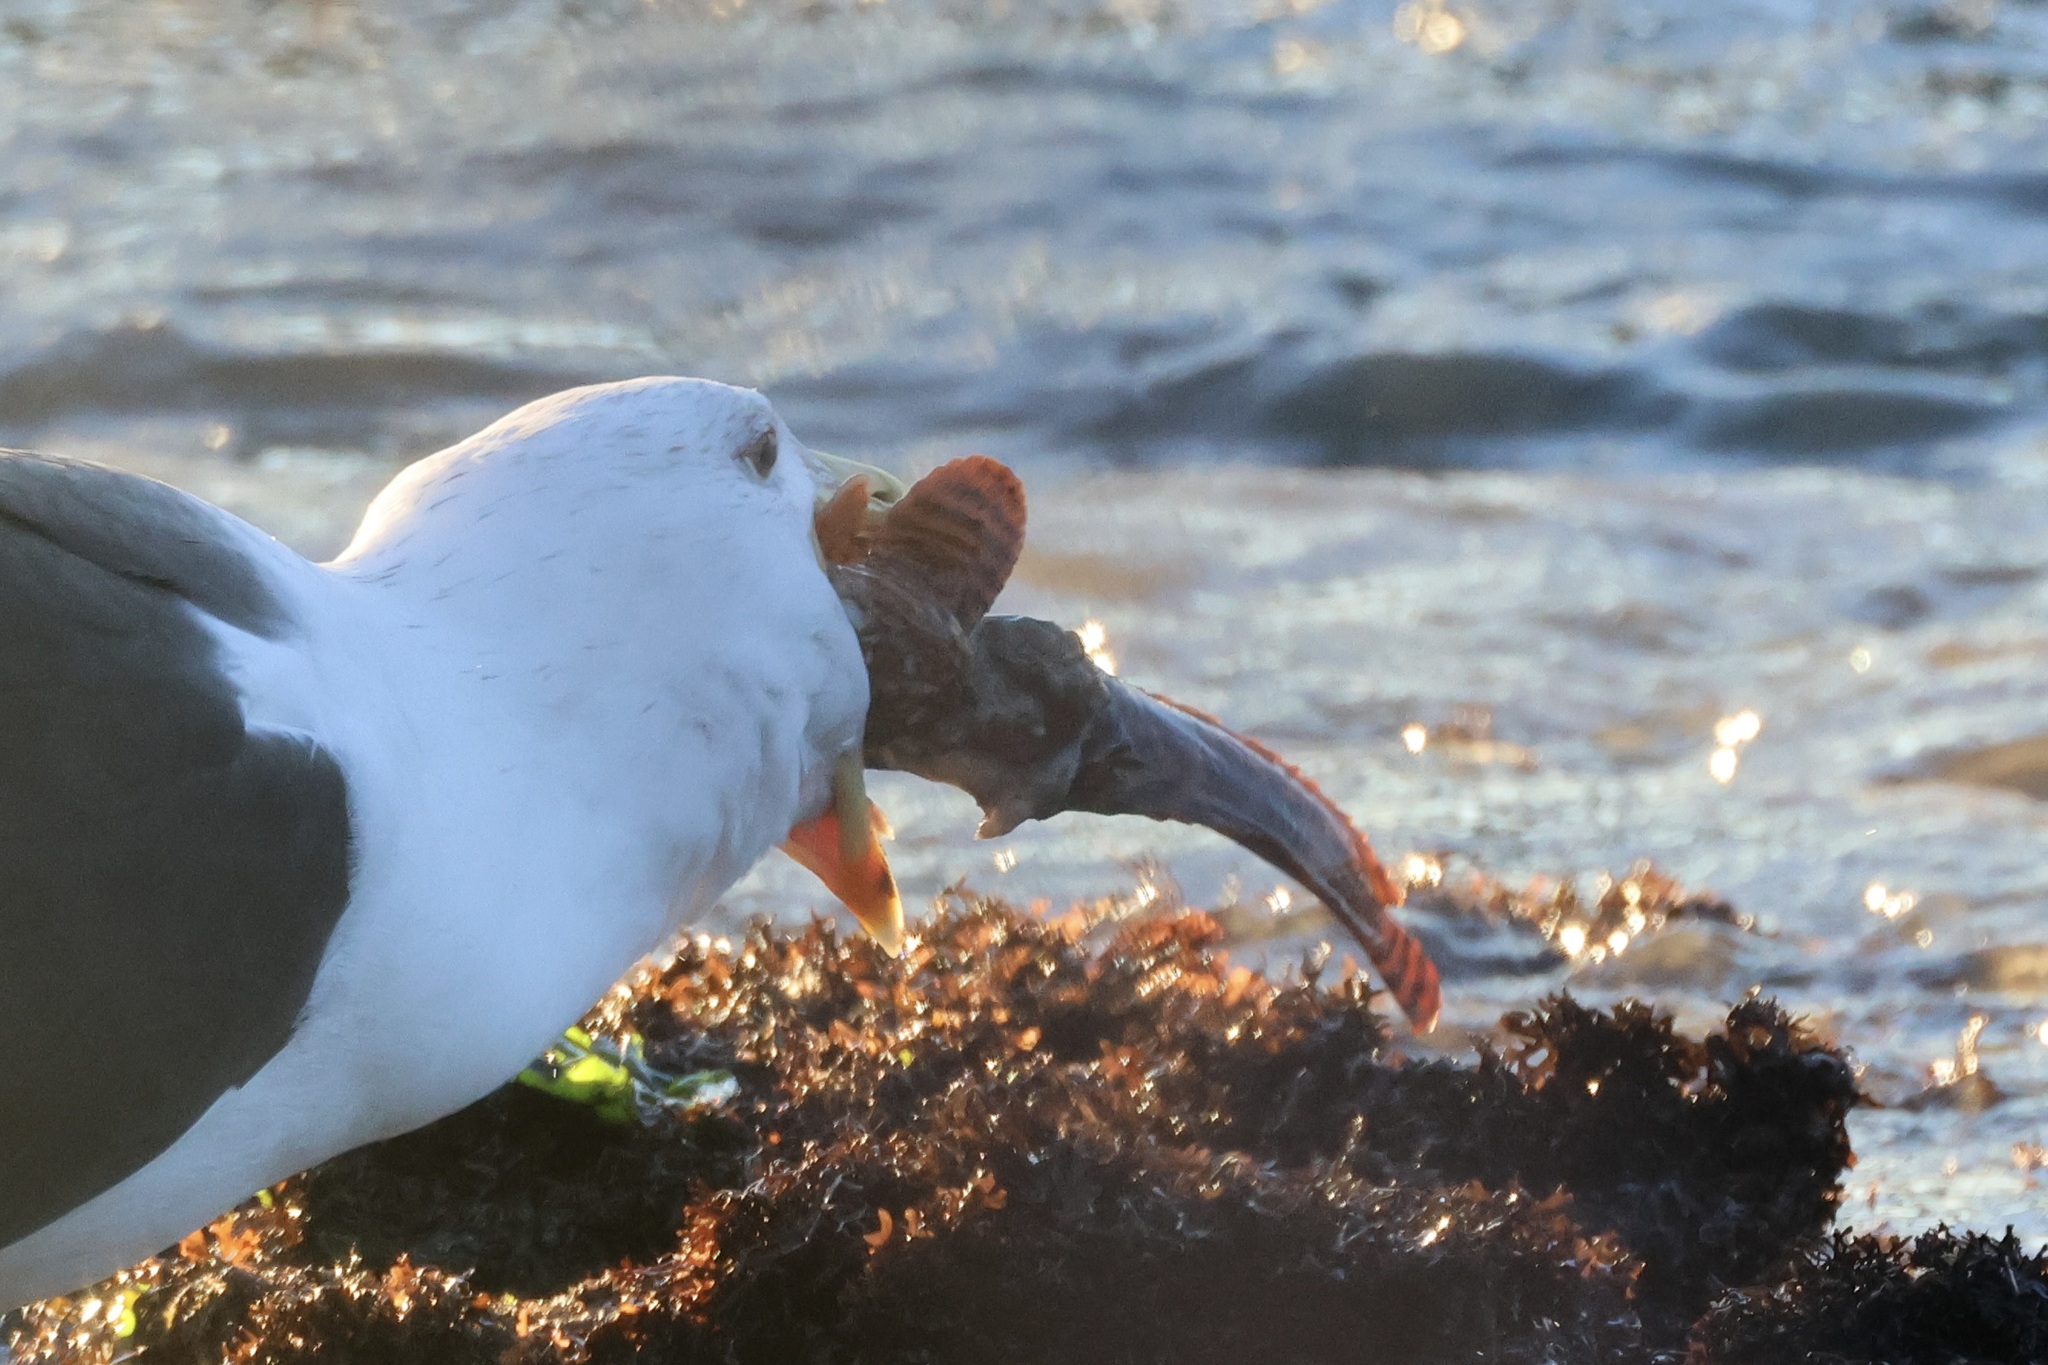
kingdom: Animalia
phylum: Chordata
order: Batrachoidiformes
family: Batrachoididae
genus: Opsanus
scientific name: Opsanus tau
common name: Oyster toadfish
